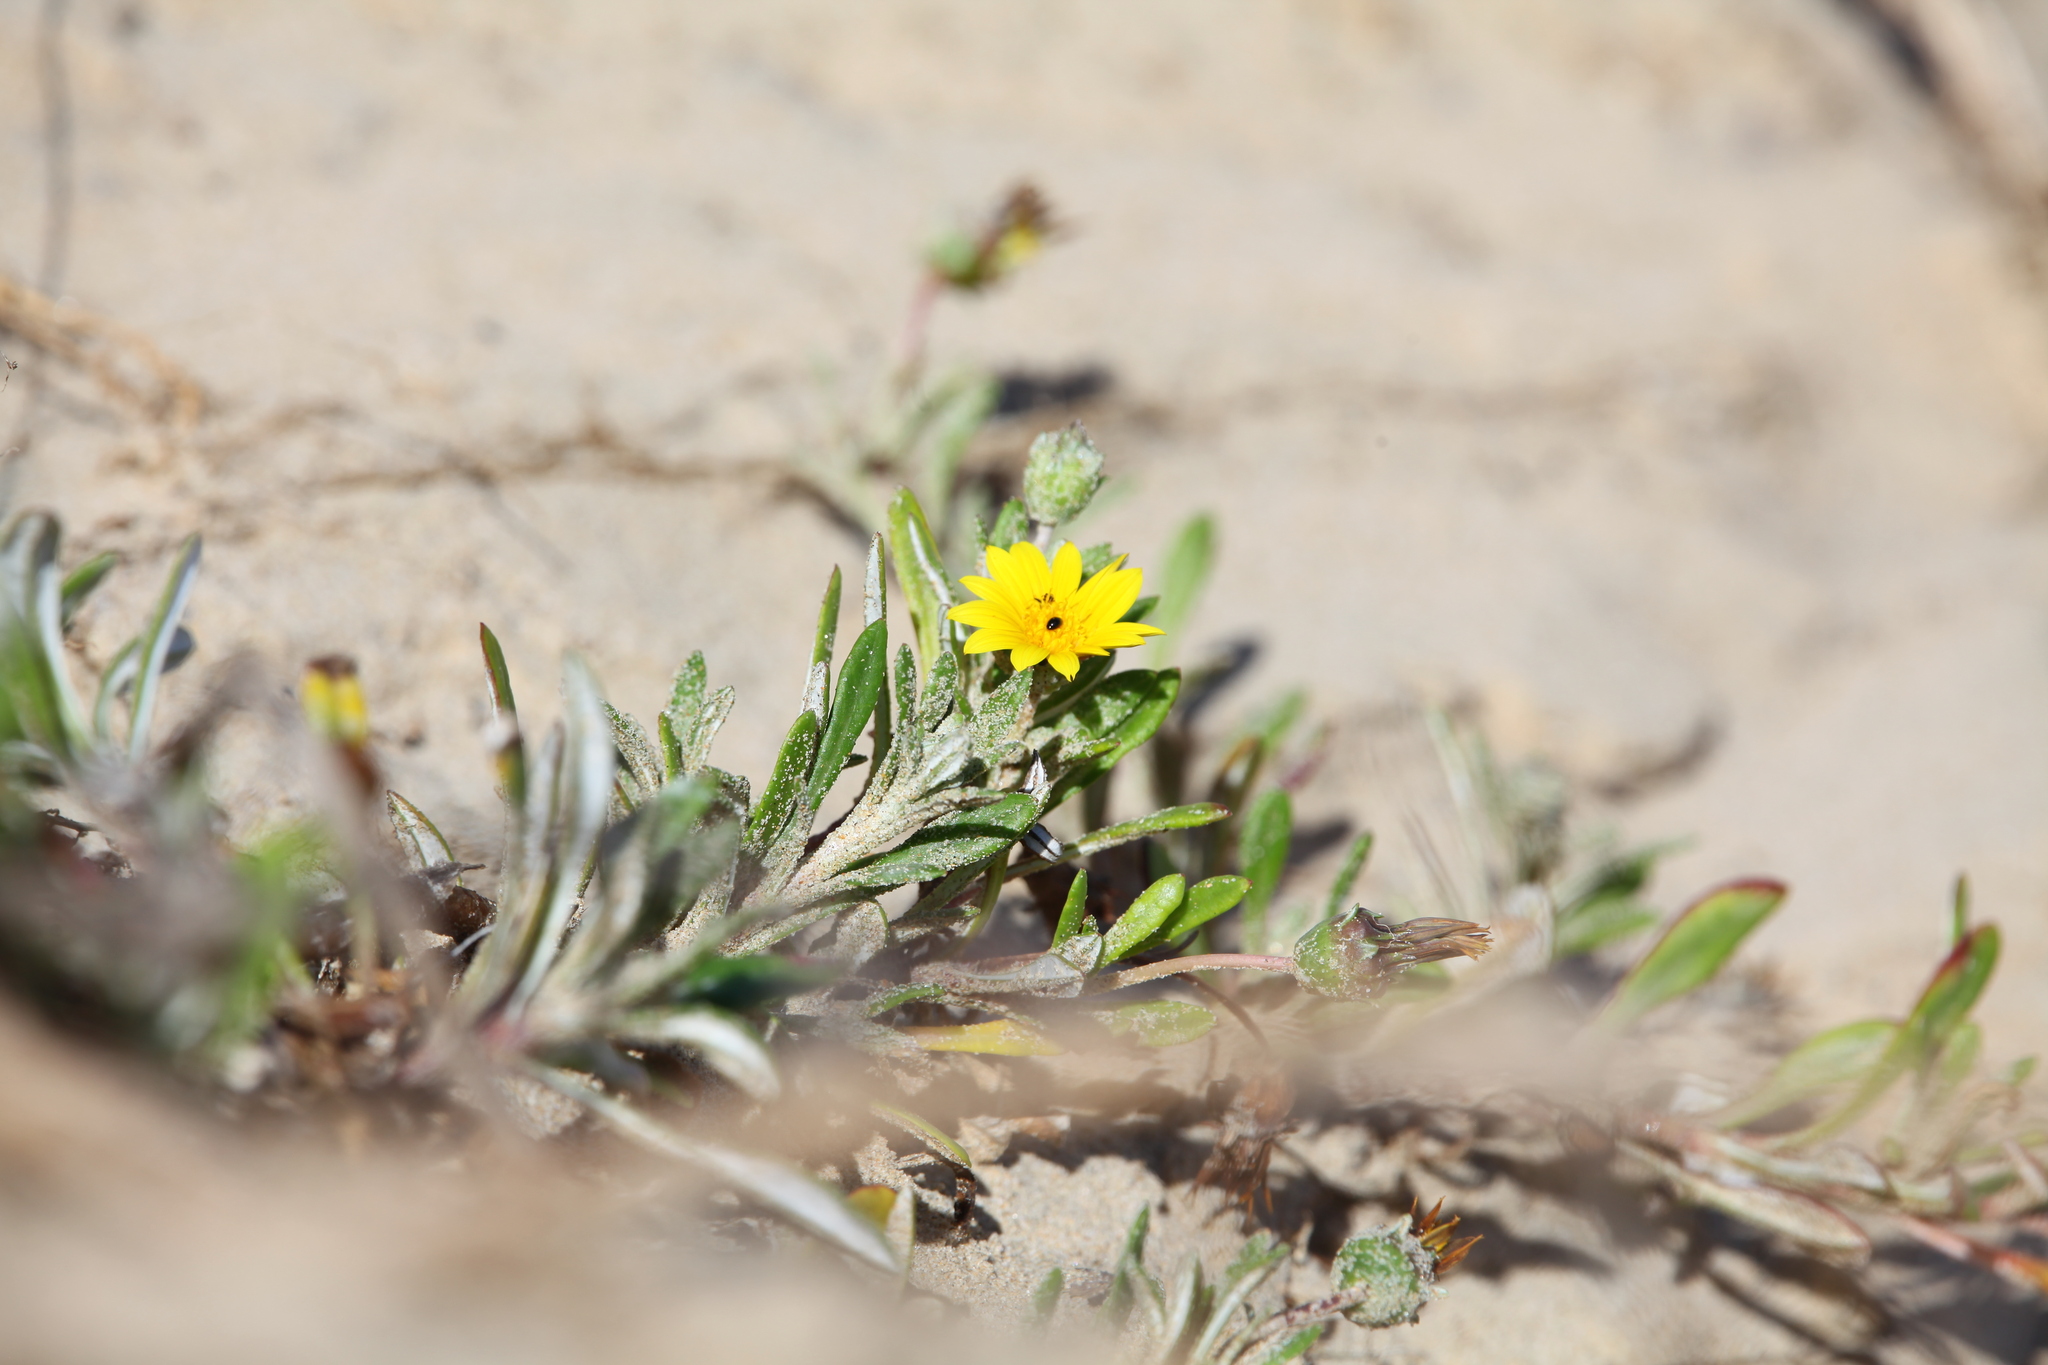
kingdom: Plantae
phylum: Tracheophyta
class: Magnoliopsida
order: Asterales
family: Asteraceae
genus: Gazania
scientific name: Gazania rigens
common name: Treasureflower
